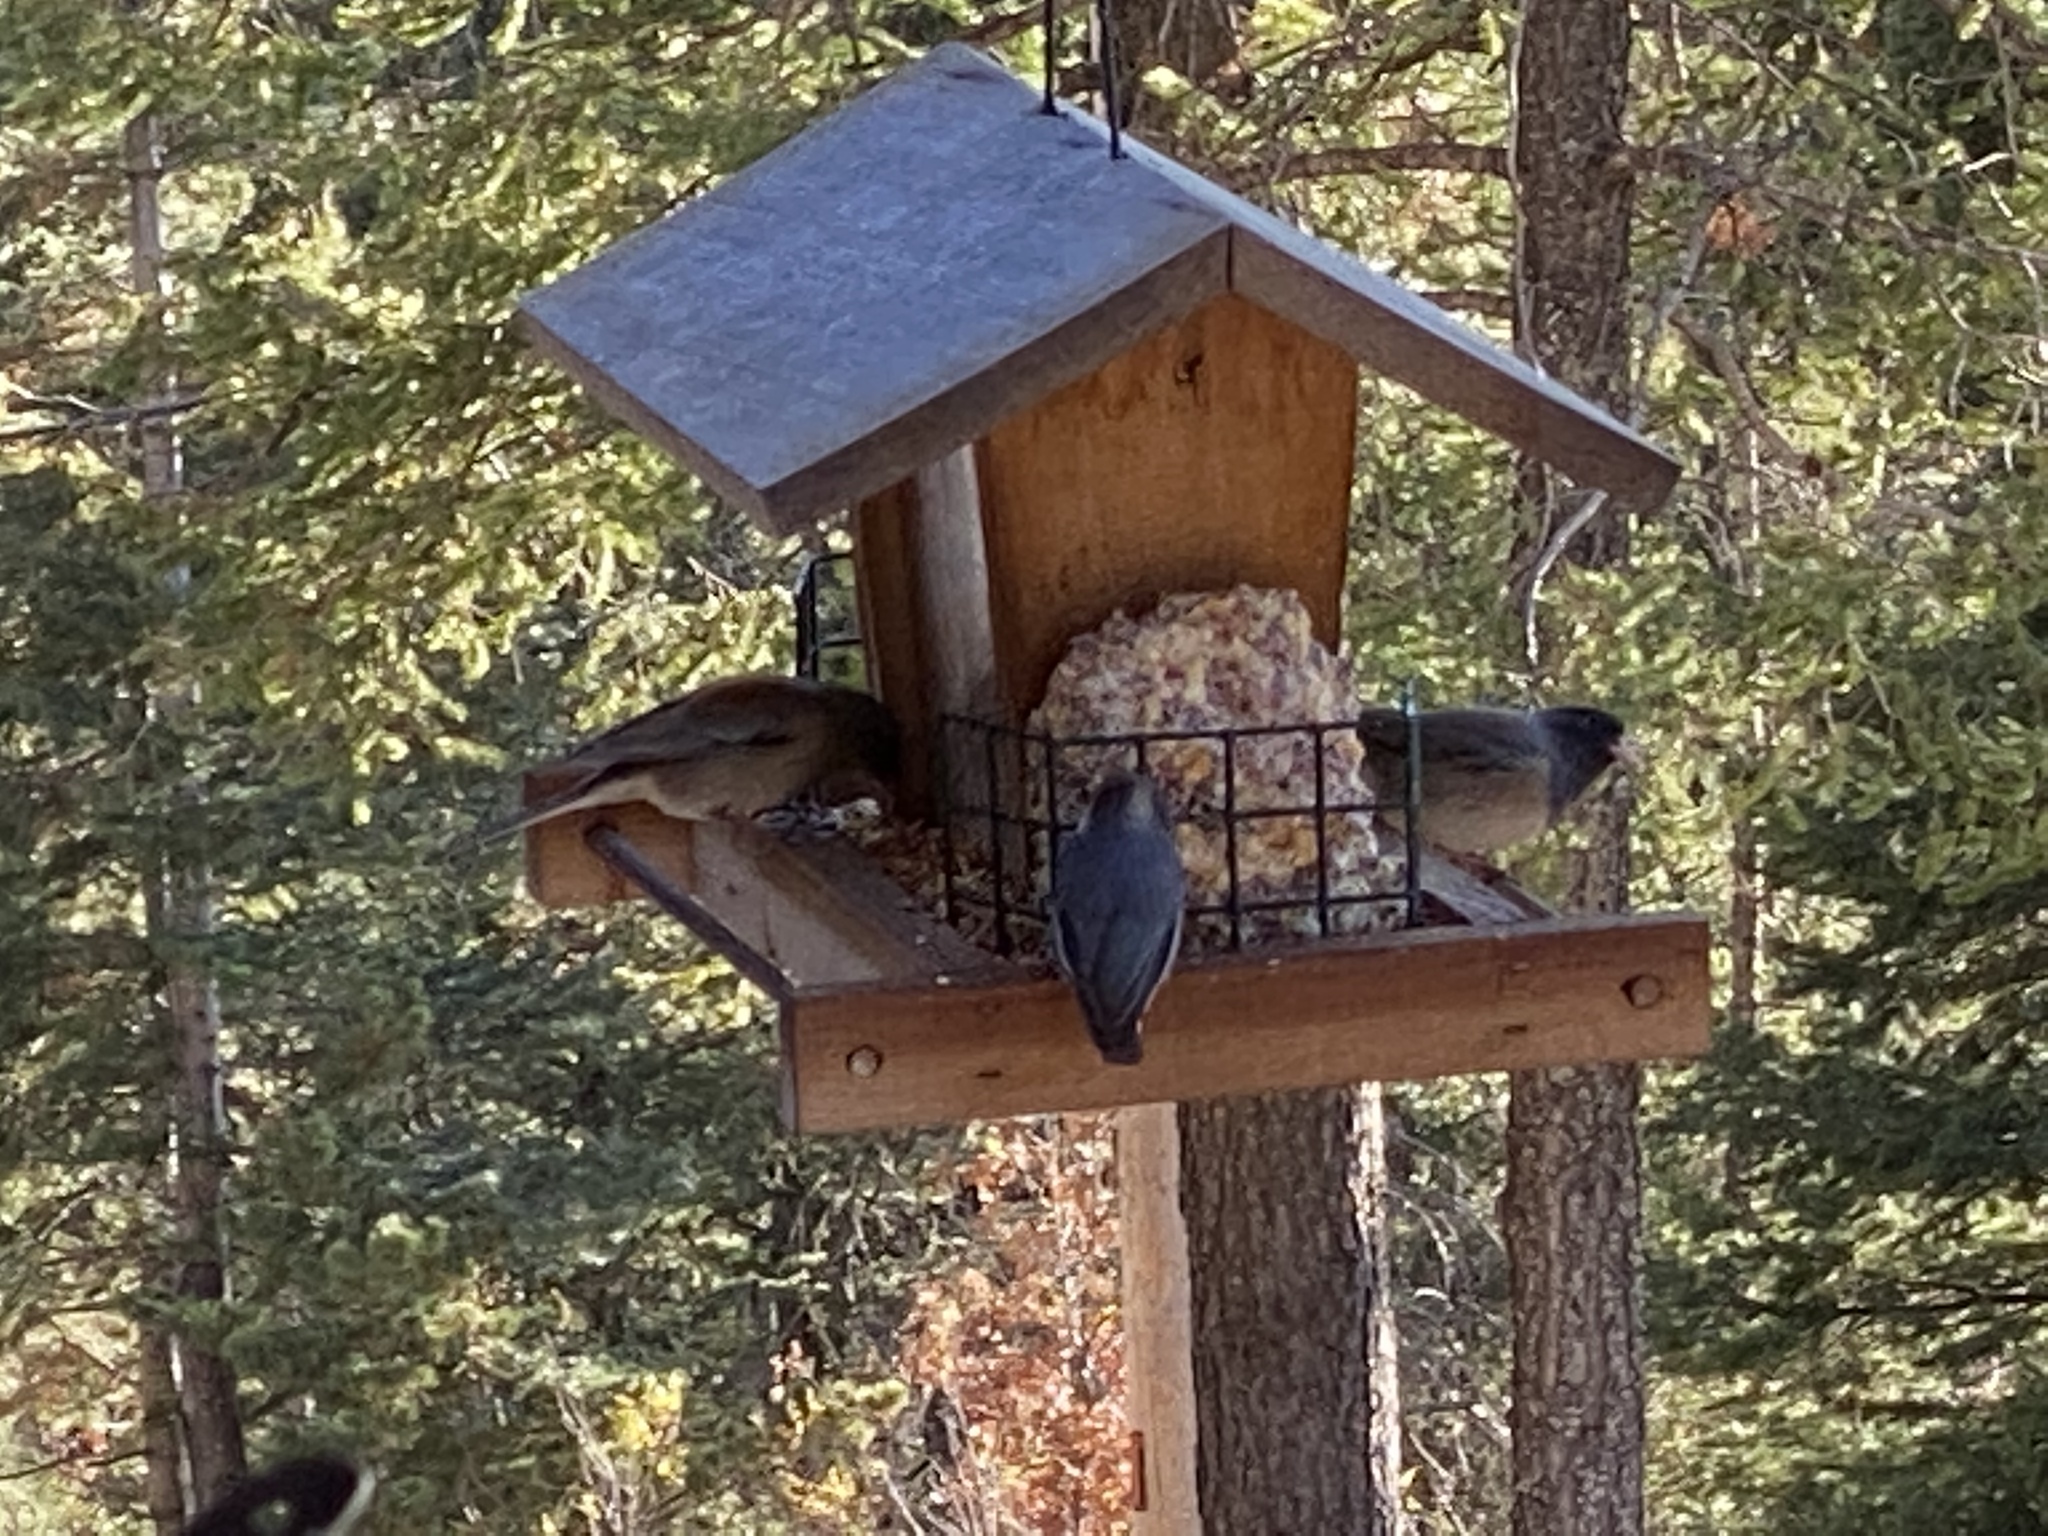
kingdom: Animalia
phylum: Chordata
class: Aves
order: Passeriformes
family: Passerellidae
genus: Junco
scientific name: Junco hyemalis
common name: Dark-eyed junco
